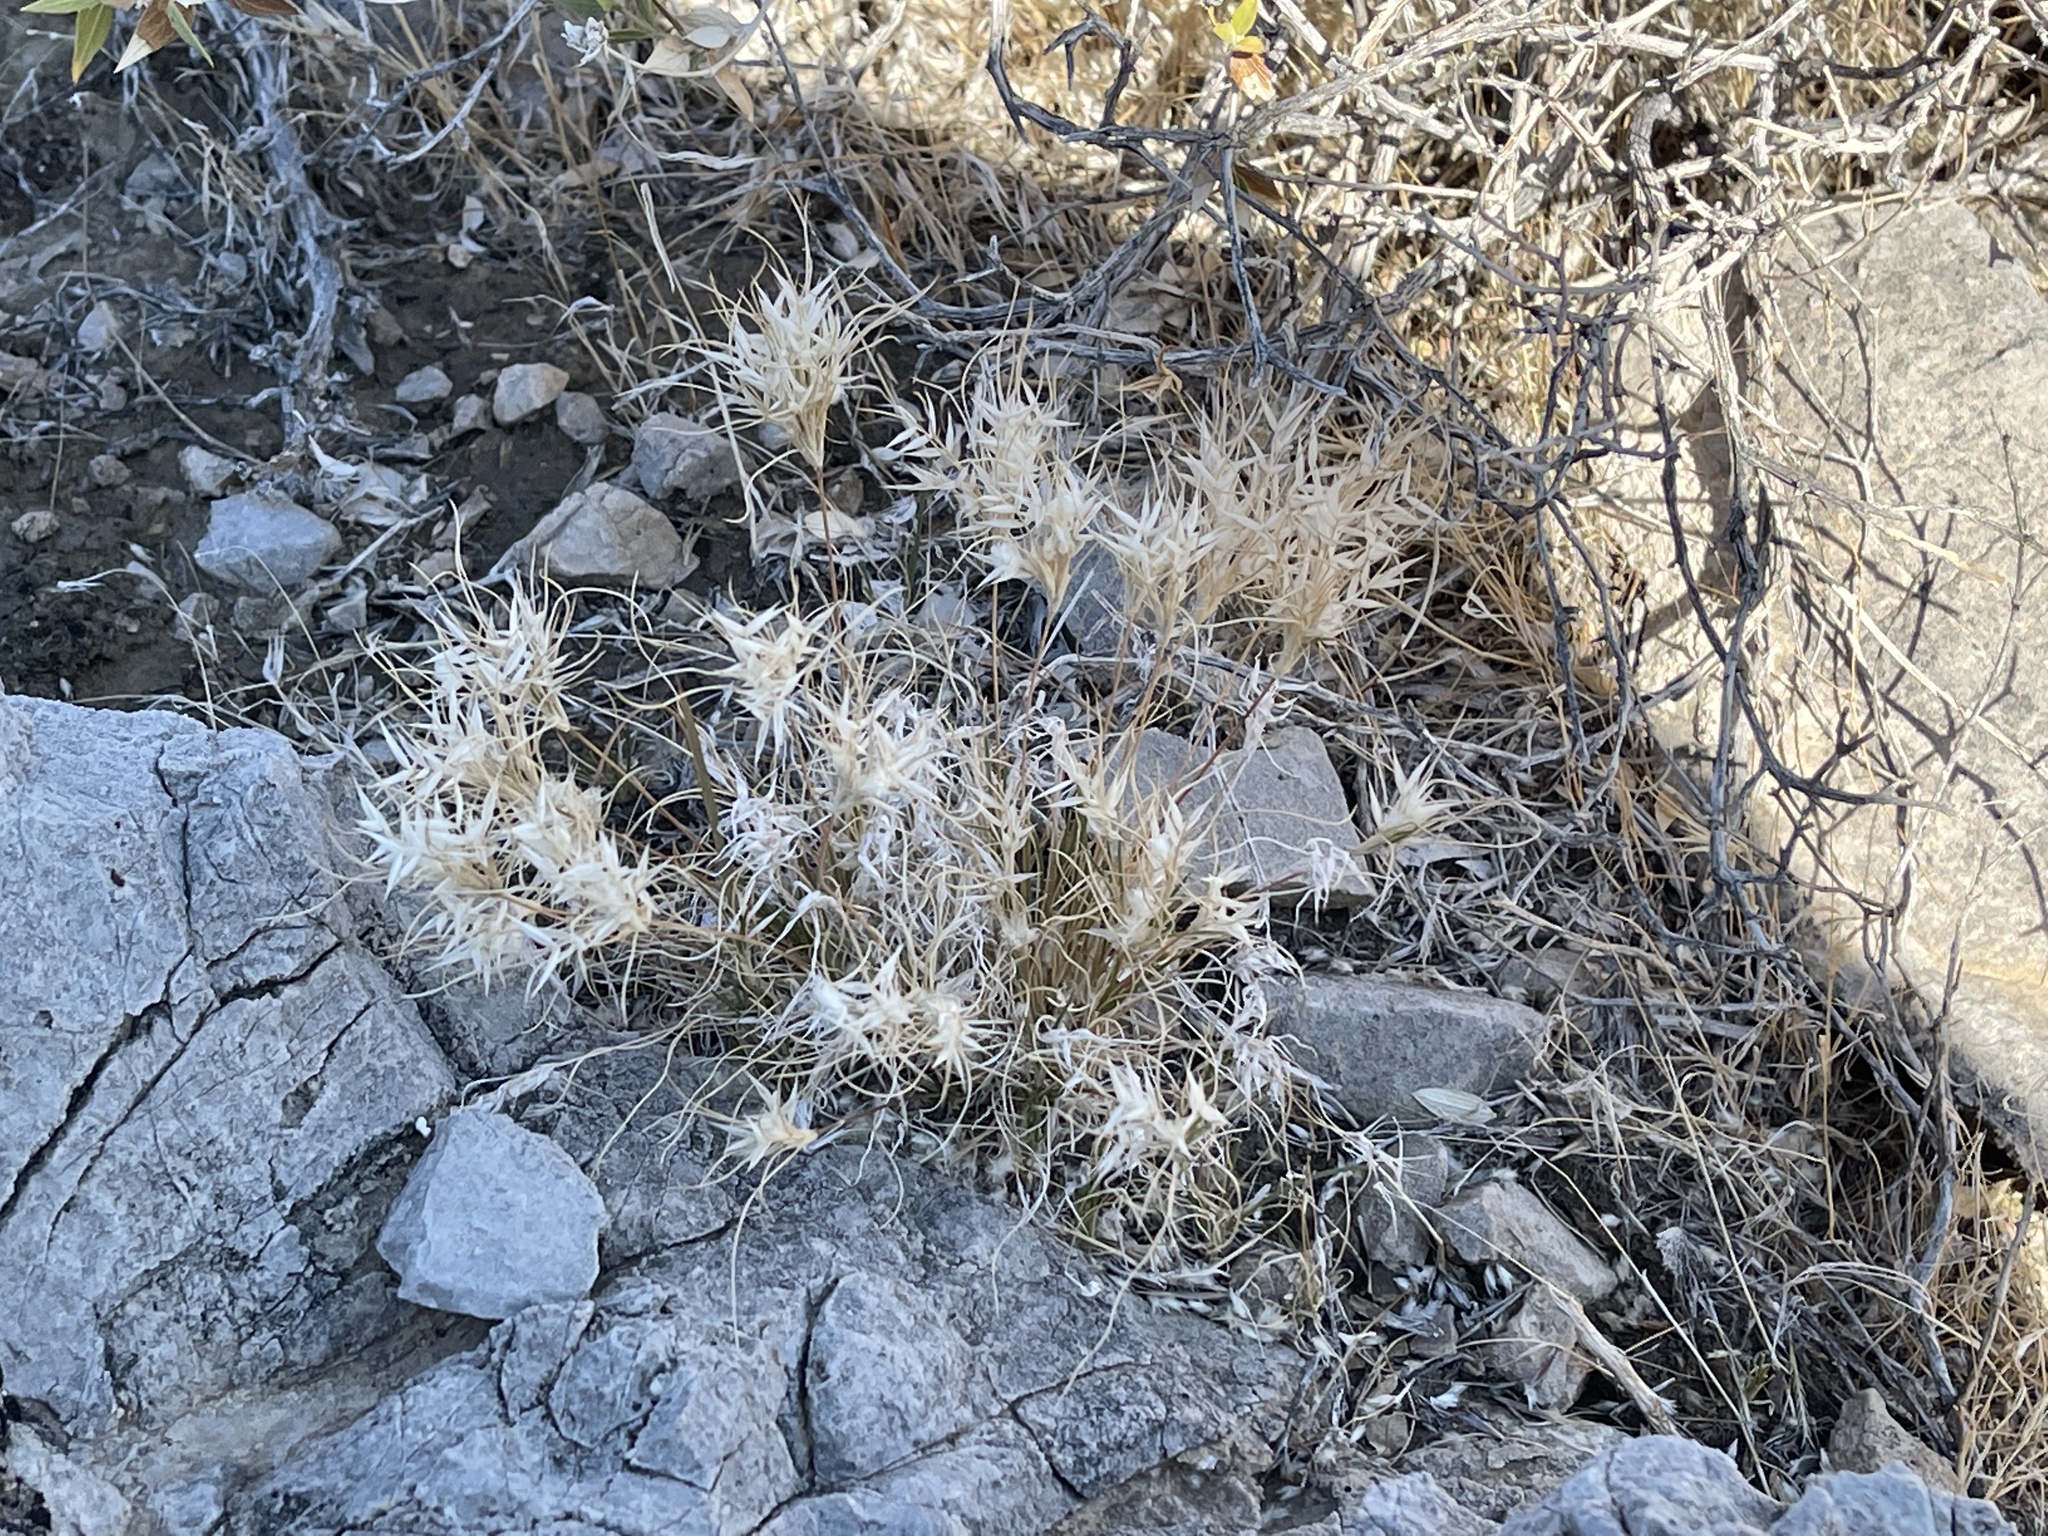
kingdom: Plantae
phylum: Tracheophyta
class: Liliopsida
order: Poales
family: Poaceae
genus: Dasyochloa
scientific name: Dasyochloa pulchella
